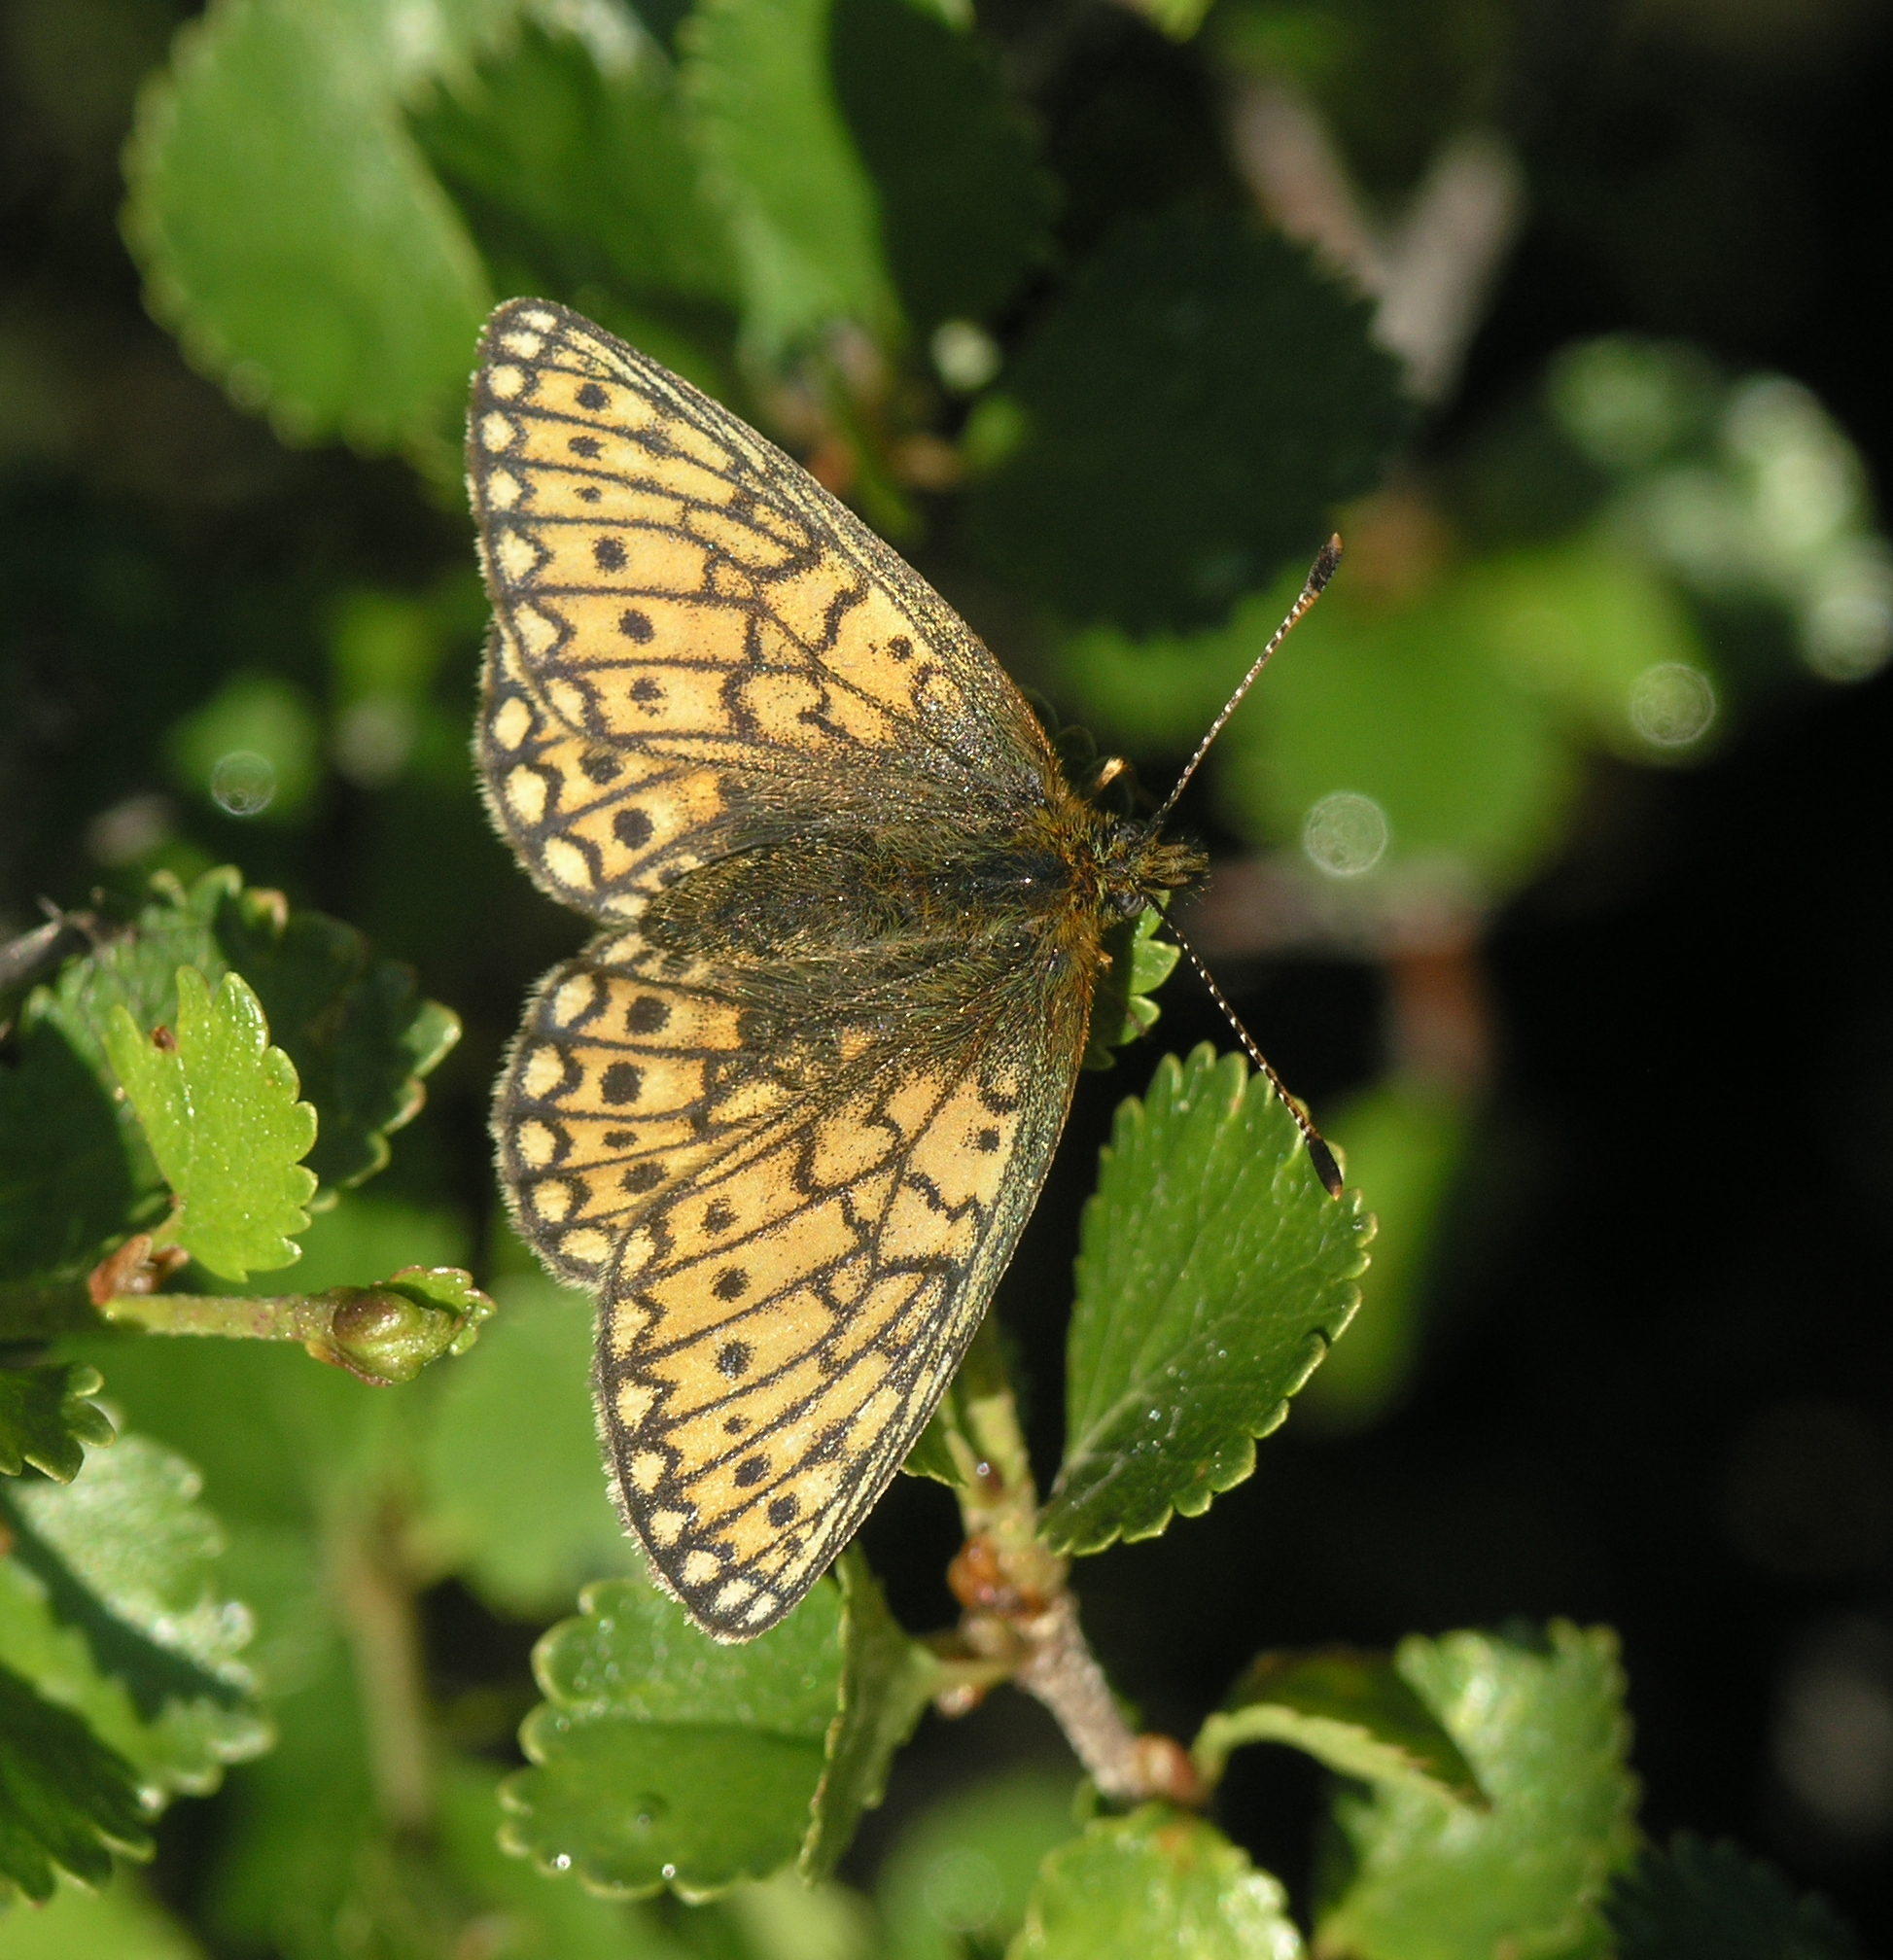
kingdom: Animalia
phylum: Arthropoda
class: Insecta
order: Lepidoptera
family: Nymphalidae
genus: Boloria
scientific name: Boloria eunomia
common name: Bog fritillary
